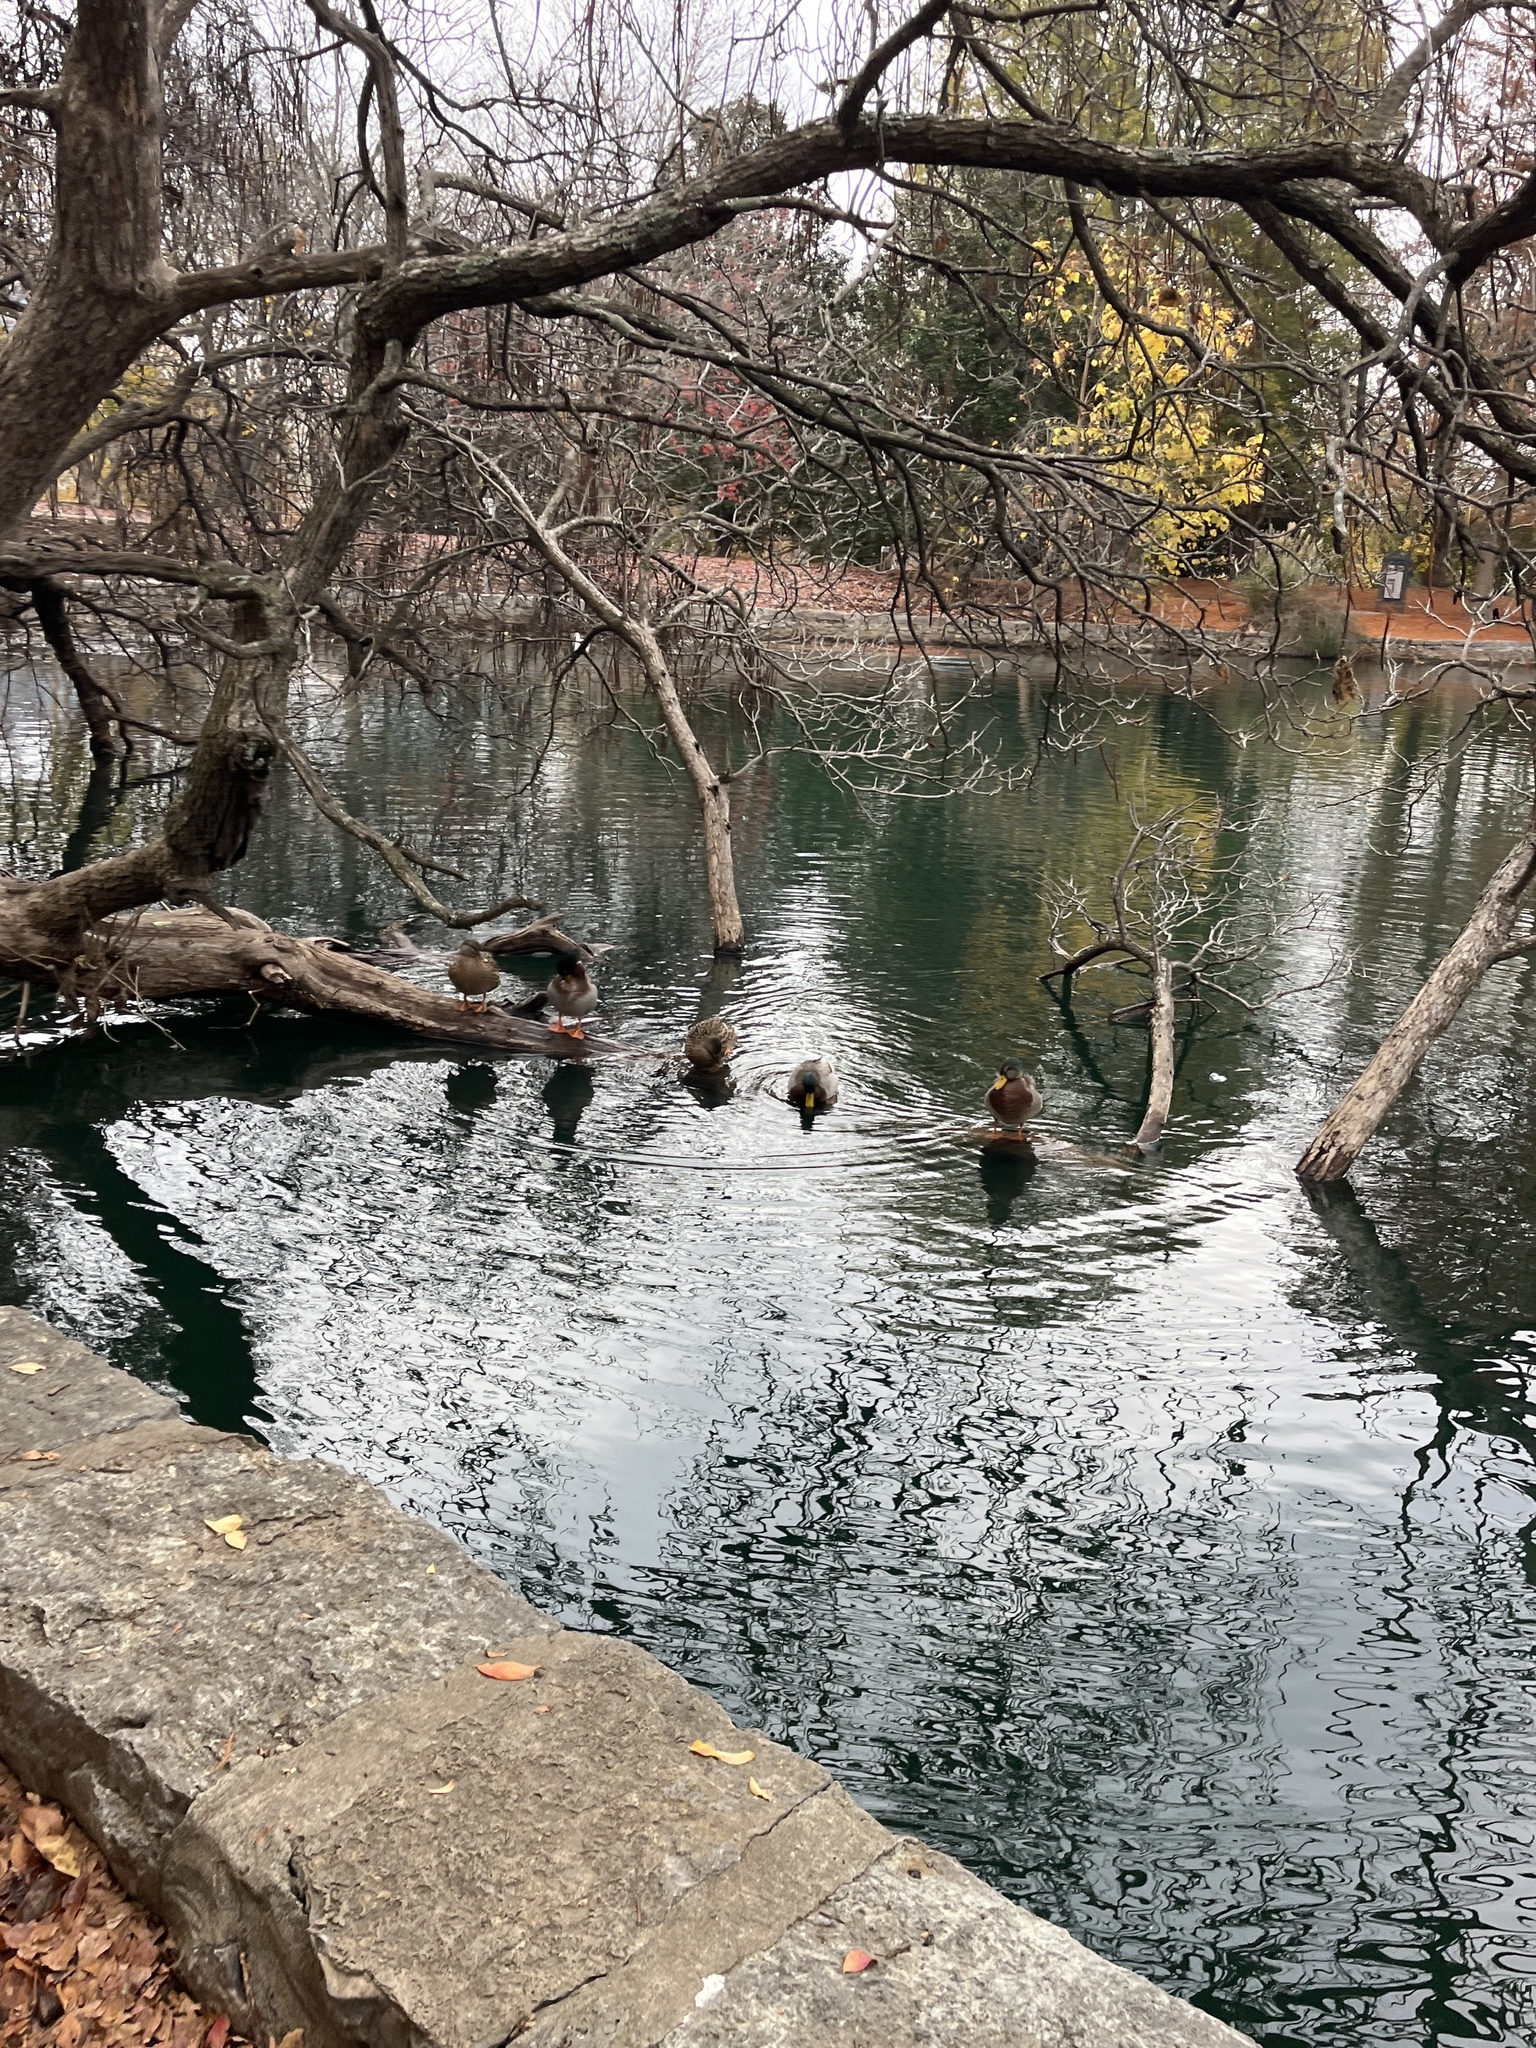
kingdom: Animalia
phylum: Chordata
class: Aves
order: Anseriformes
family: Anatidae
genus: Anas
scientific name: Anas platyrhynchos
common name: Mallard
